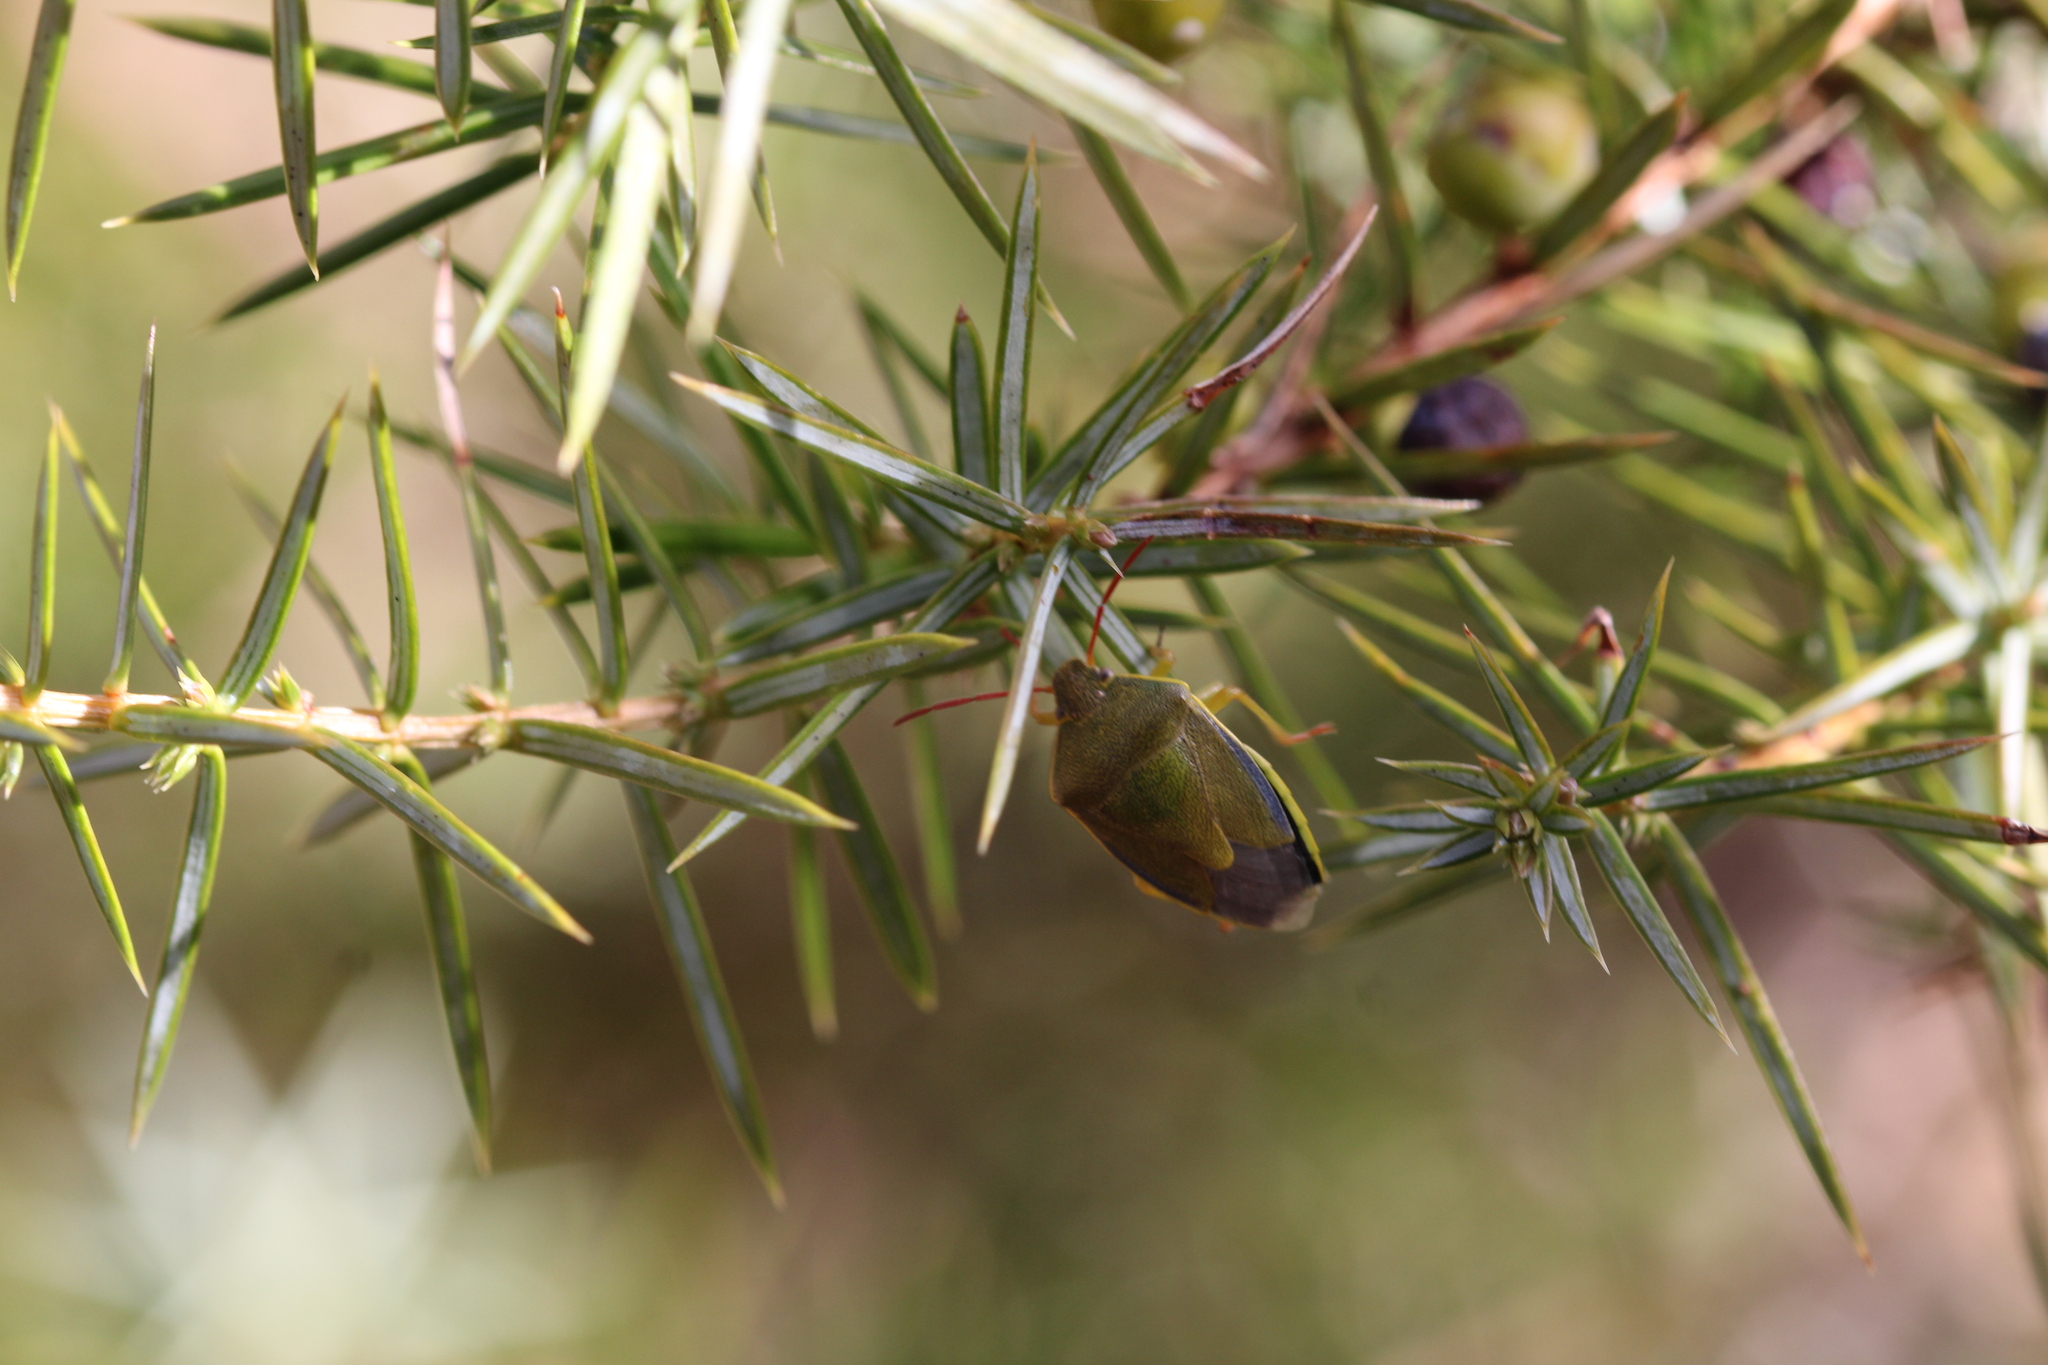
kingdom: Animalia
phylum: Arthropoda
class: Insecta
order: Hemiptera
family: Pentatomidae
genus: Piezodorus
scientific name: Piezodorus lituratus
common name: Stink bug
